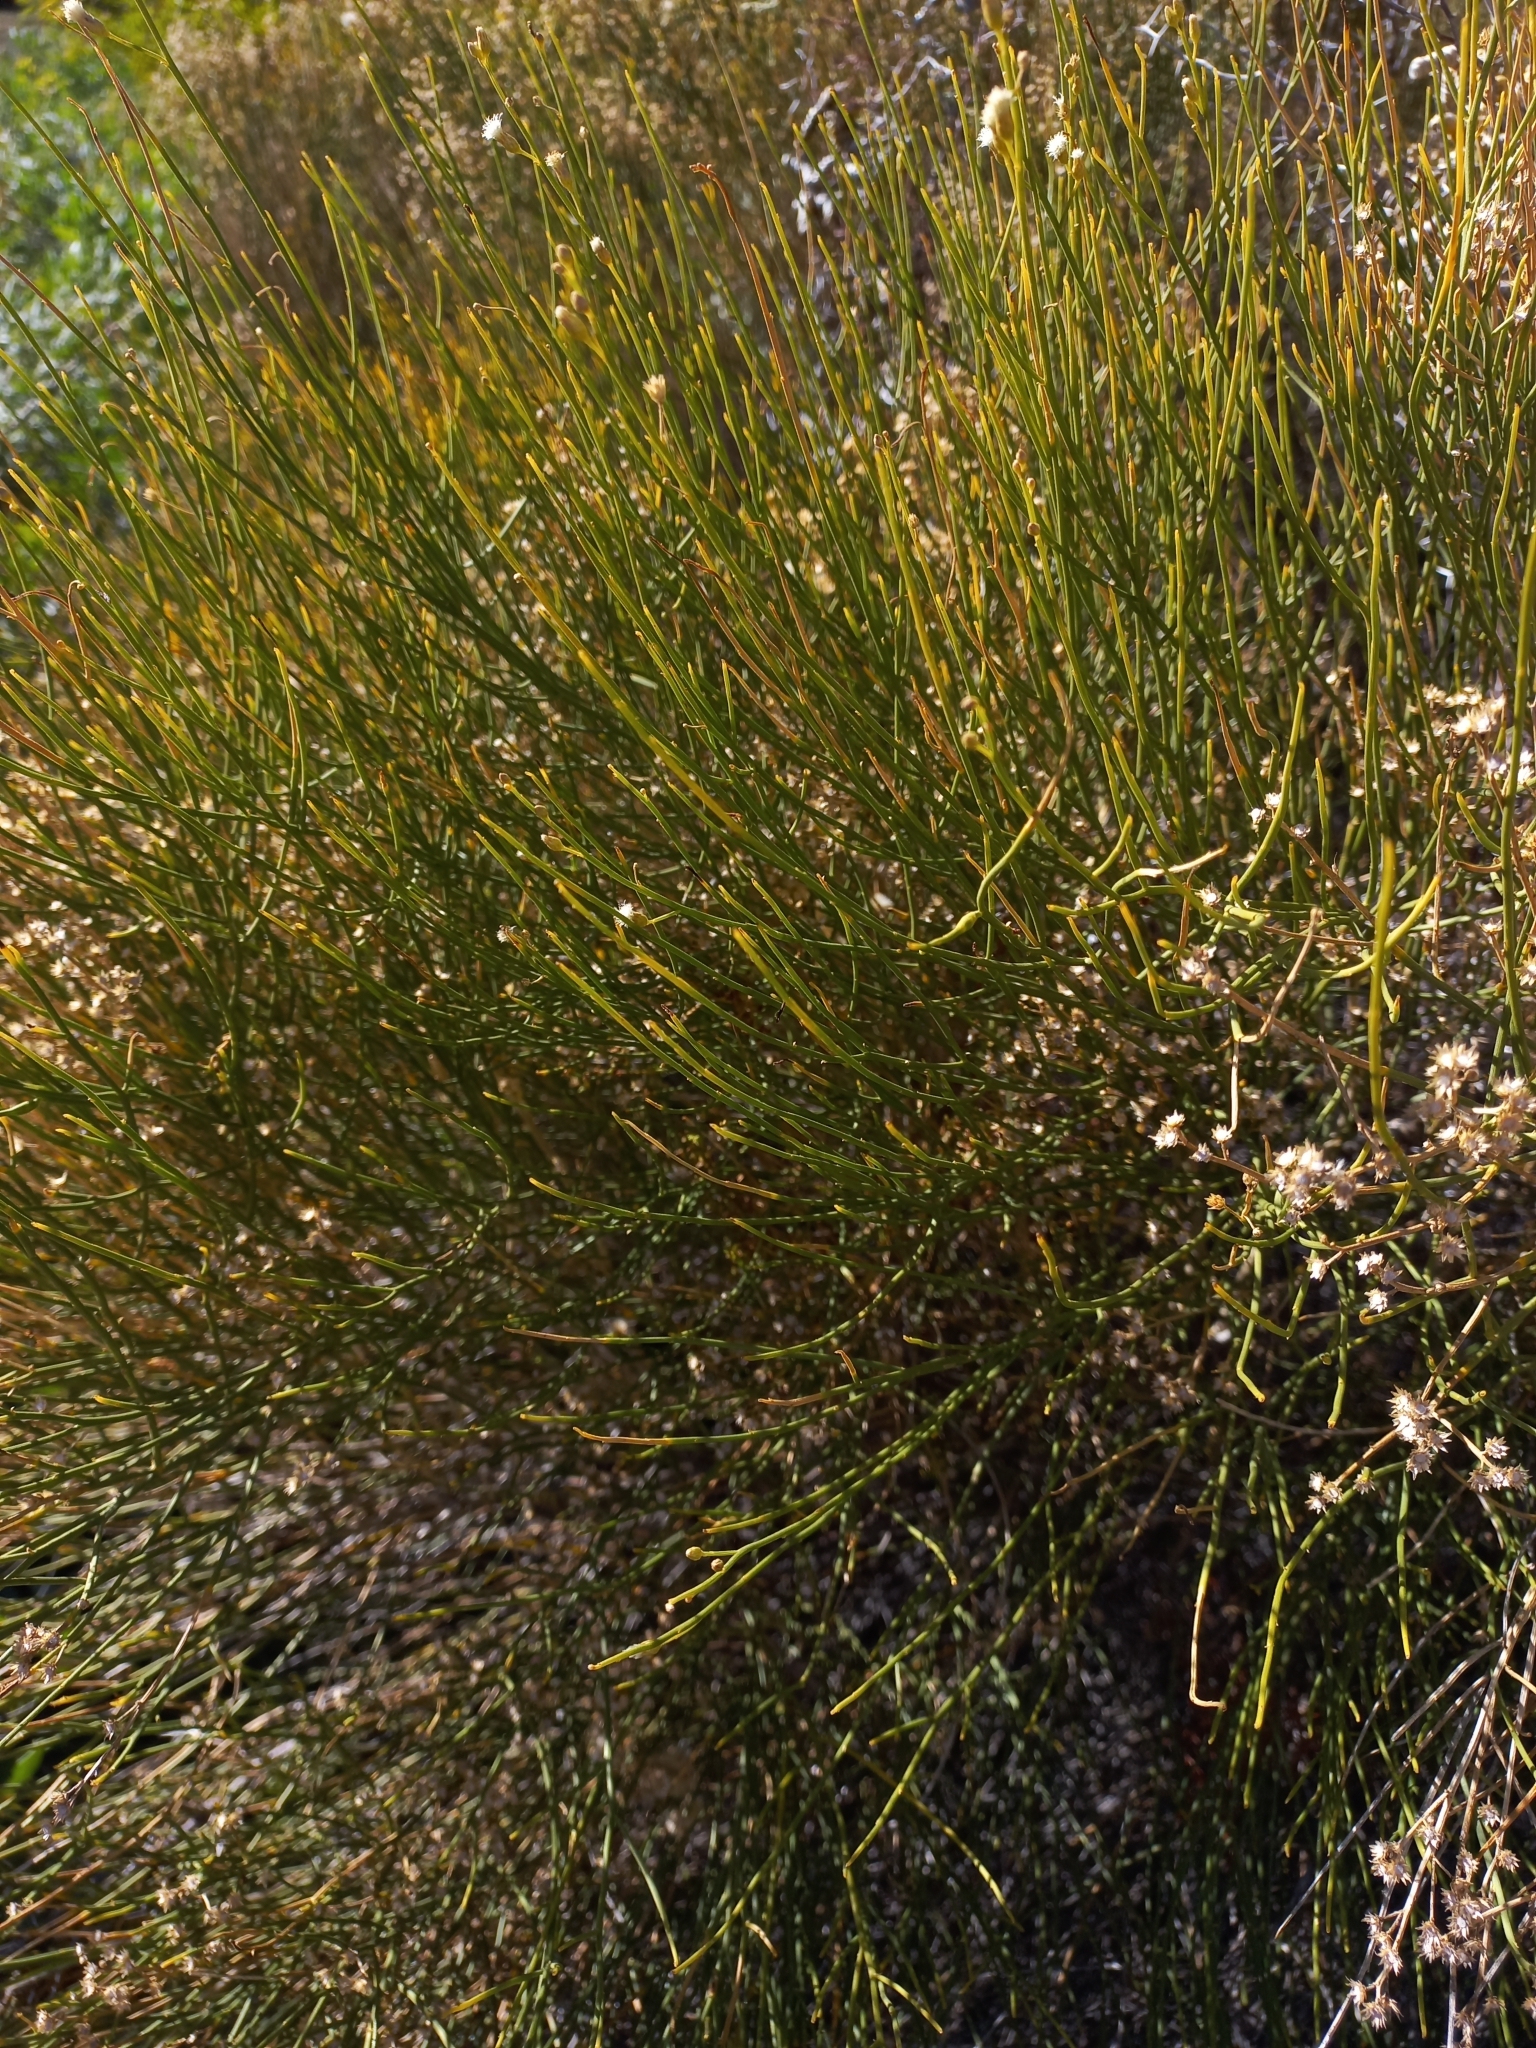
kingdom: Plantae
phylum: Tracheophyta
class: Magnoliopsida
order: Asterales
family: Asteraceae
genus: Pseudobaccharis
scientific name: Pseudobaccharis spartioides
